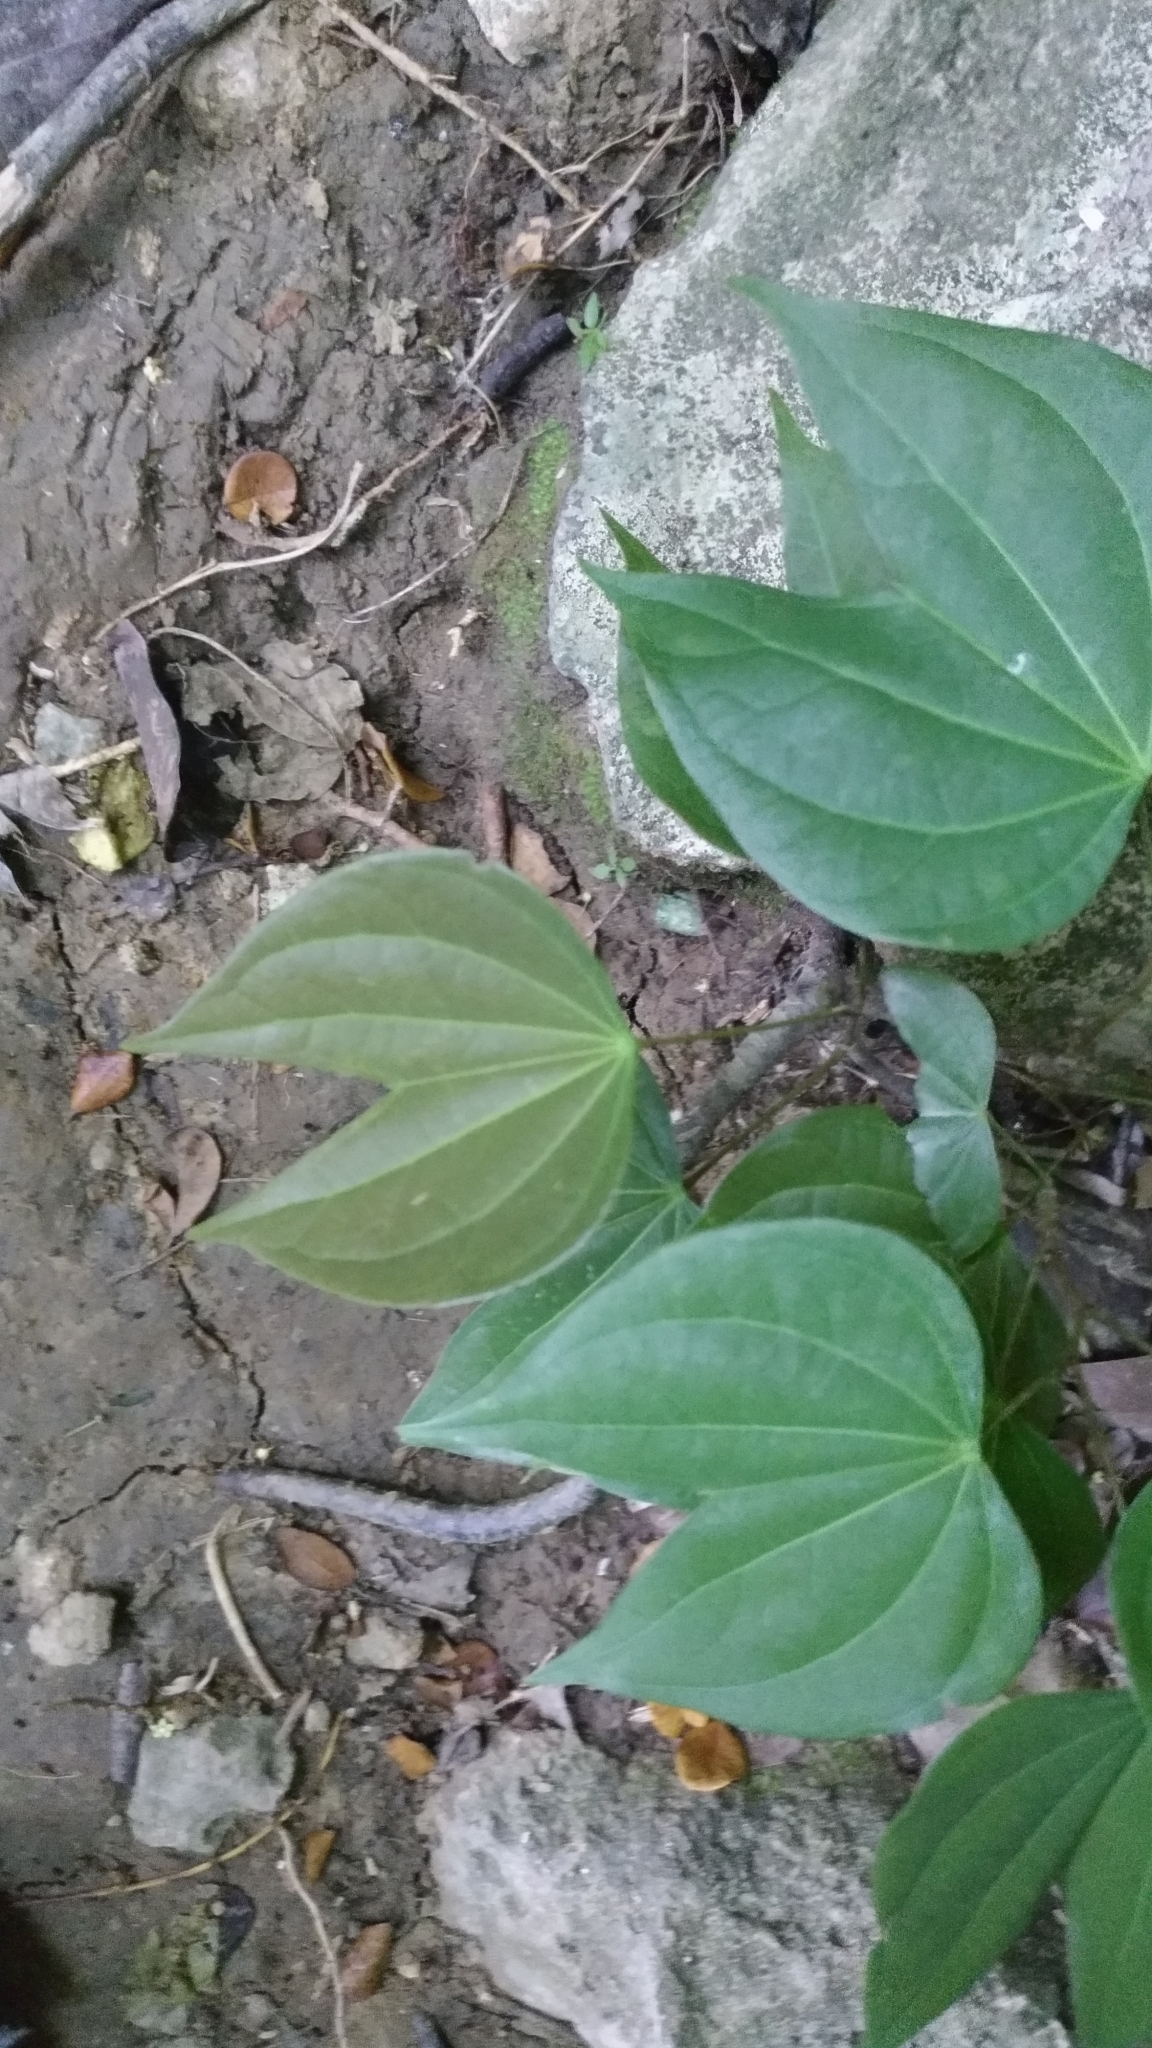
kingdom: Plantae
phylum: Tracheophyta
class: Magnoliopsida
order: Fabales
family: Fabaceae
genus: Phanera
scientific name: Phanera championii
